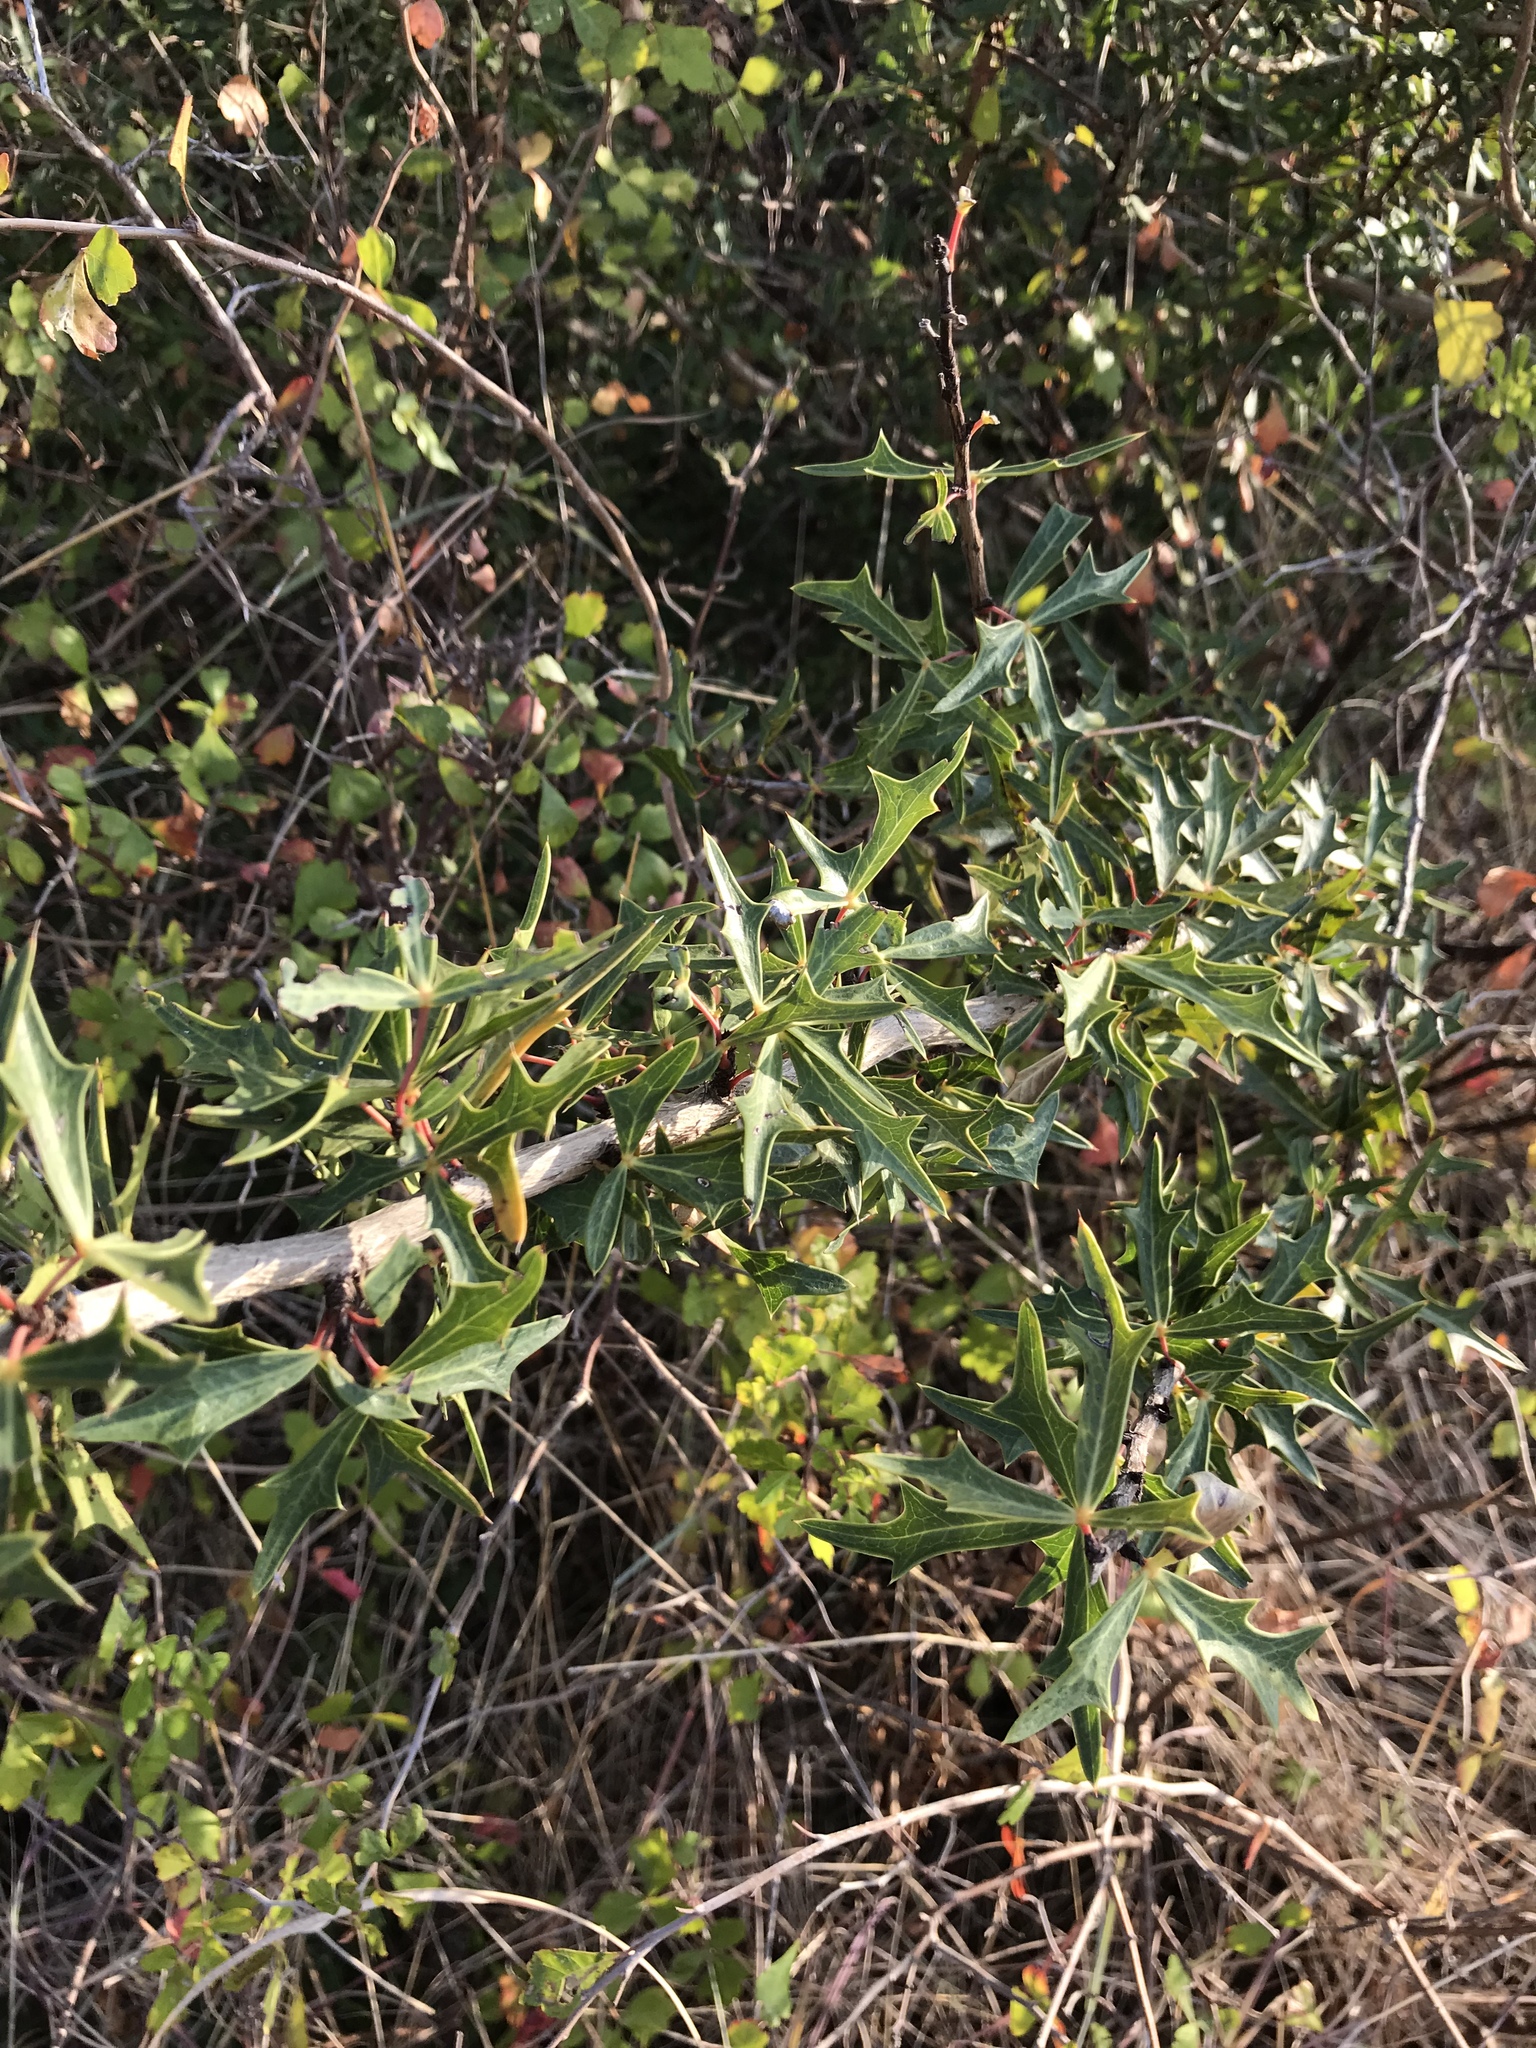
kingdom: Plantae
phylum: Tracheophyta
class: Magnoliopsida
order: Ranunculales
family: Berberidaceae
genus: Alloberberis
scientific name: Alloberberis trifoliolata
